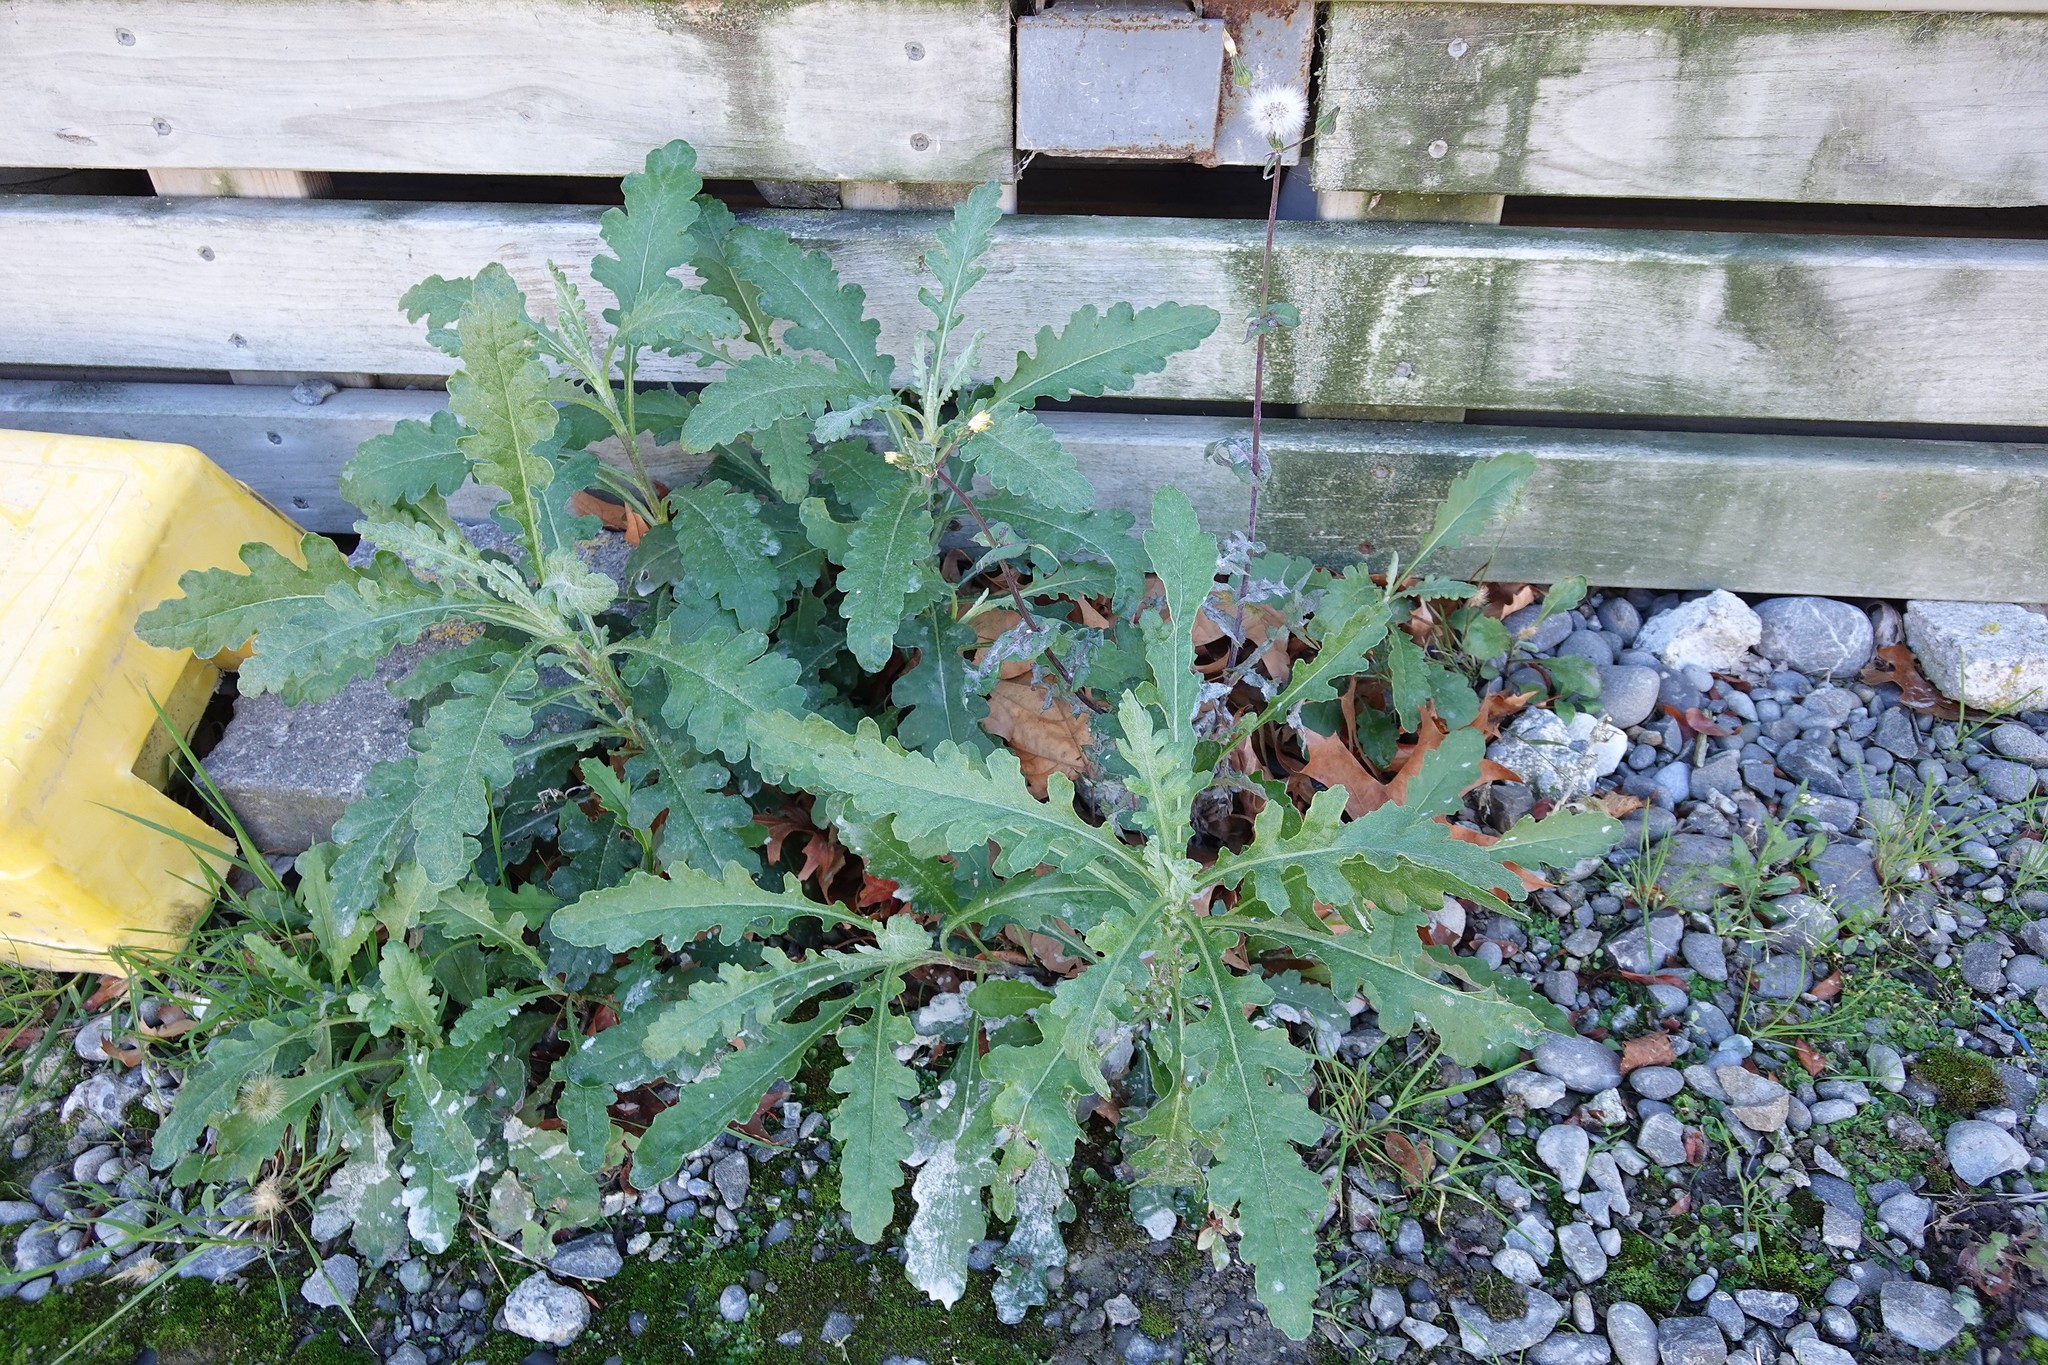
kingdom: Plantae
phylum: Tracheophyta
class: Magnoliopsida
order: Asterales
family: Asteraceae
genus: Senecio
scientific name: Senecio glomeratus
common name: Cutleaf burnweed
